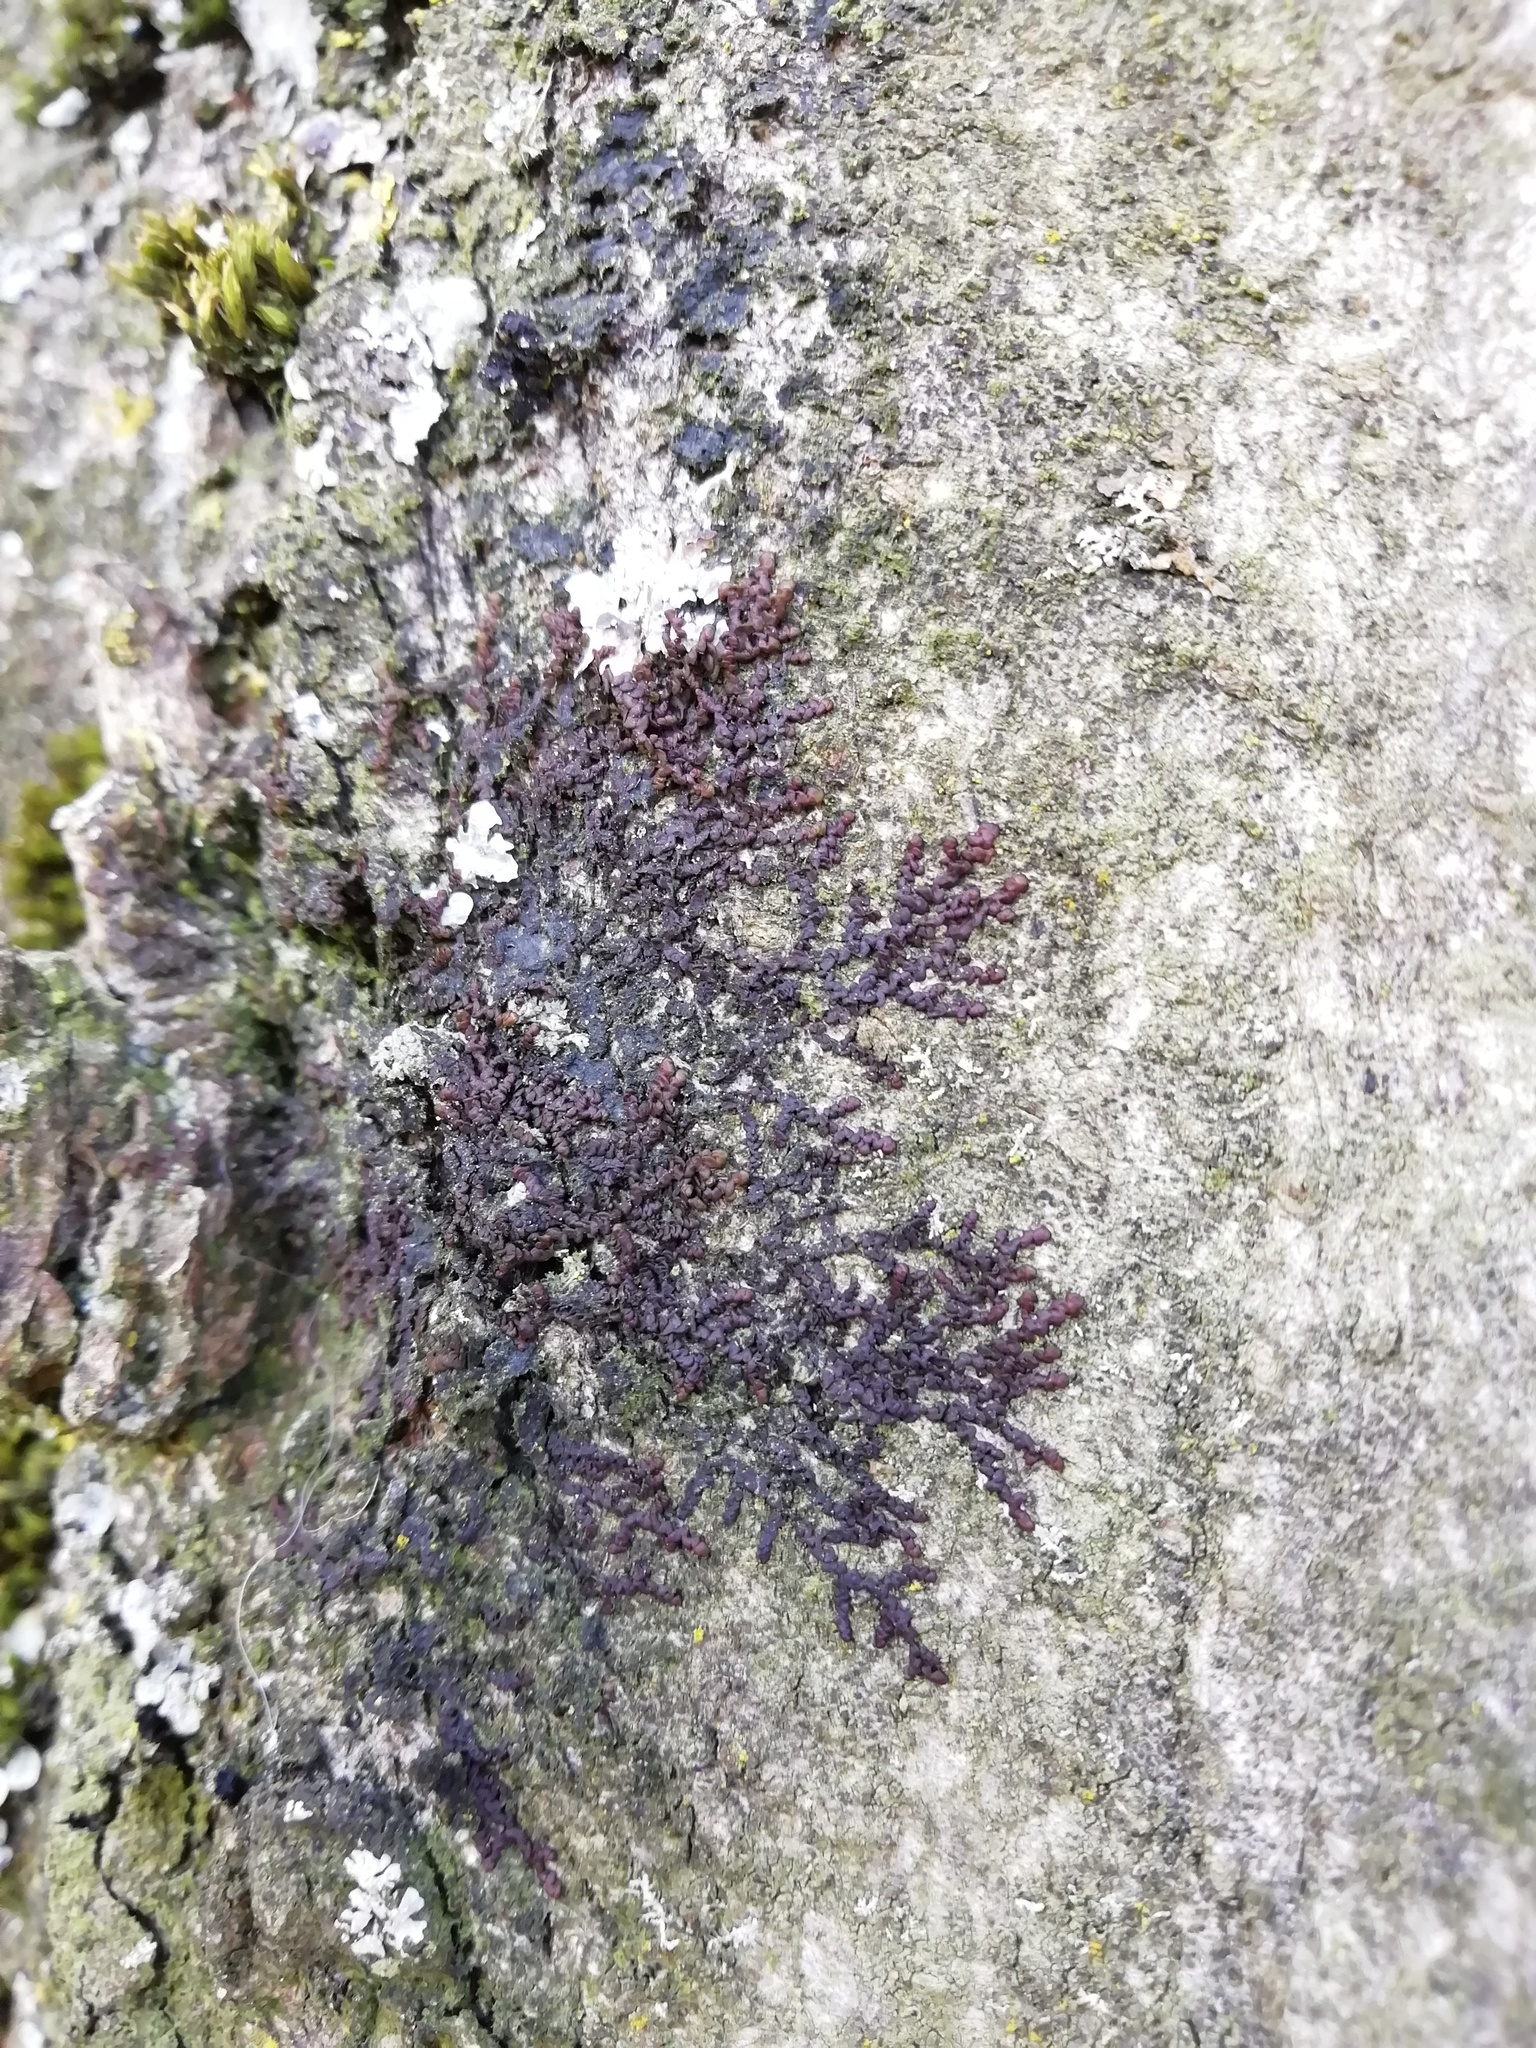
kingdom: Plantae
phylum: Marchantiophyta
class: Jungermanniopsida
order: Porellales
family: Frullaniaceae
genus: Frullania
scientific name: Frullania dilatata
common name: Dilated scalewort
